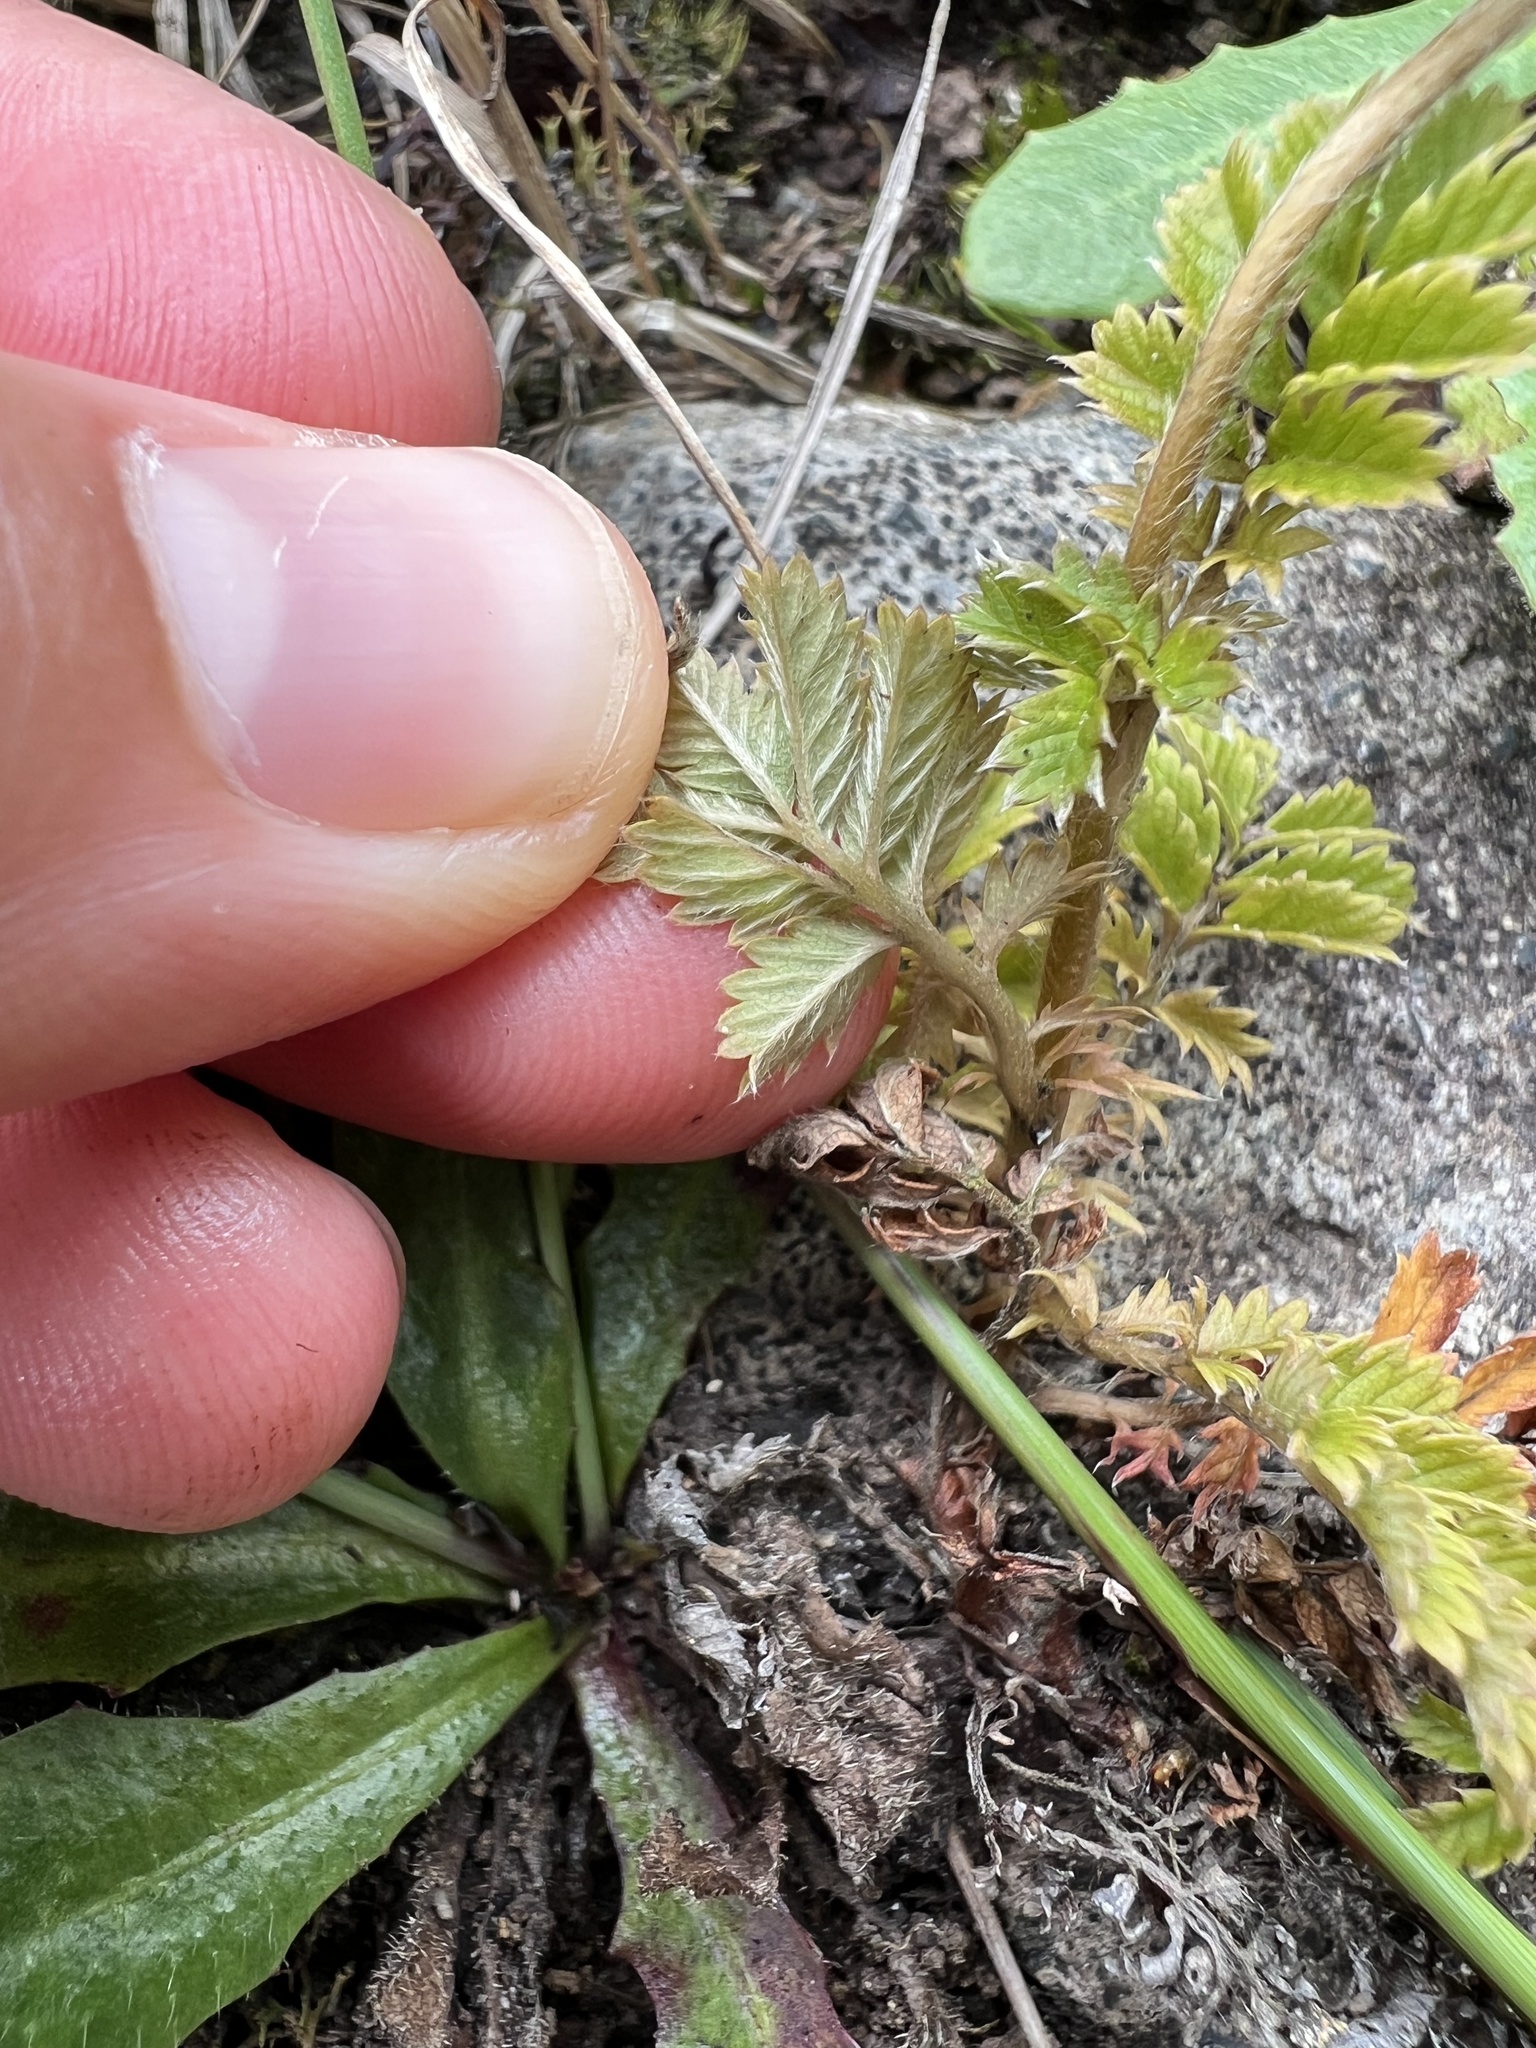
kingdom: Plantae
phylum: Tracheophyta
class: Magnoliopsida
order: Rosales
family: Rosaceae
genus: Acaena
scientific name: Acaena anserinifolia
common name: Bronze pirri-pirri-bur
